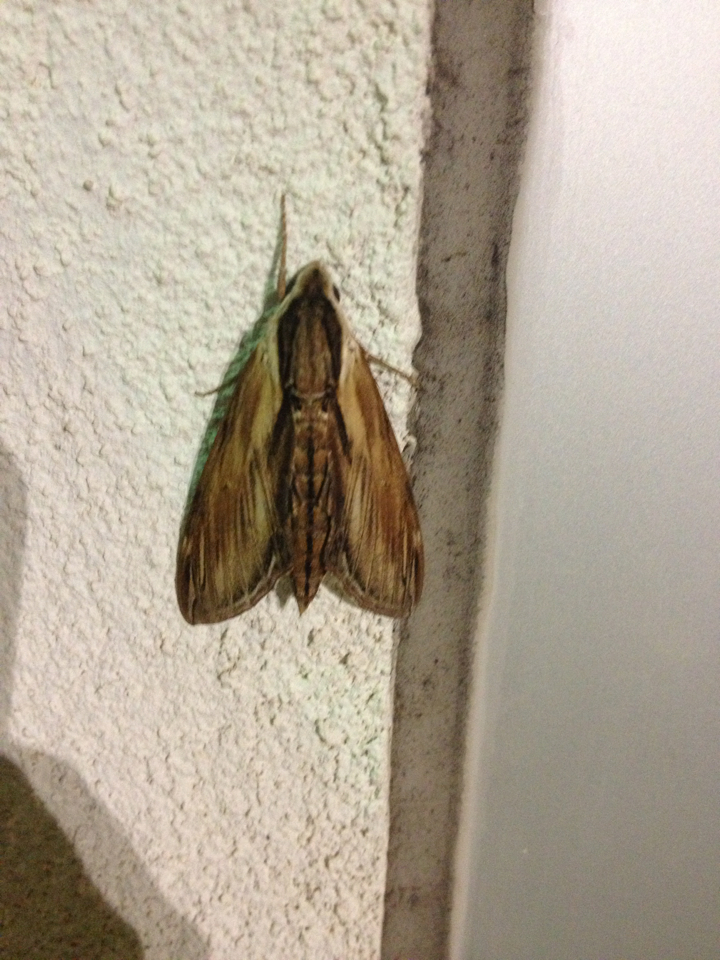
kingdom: Animalia
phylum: Arthropoda
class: Insecta
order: Lepidoptera
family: Sphingidae
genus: Sphinx
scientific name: Sphinx kalmiae
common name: Laurel sphinx
